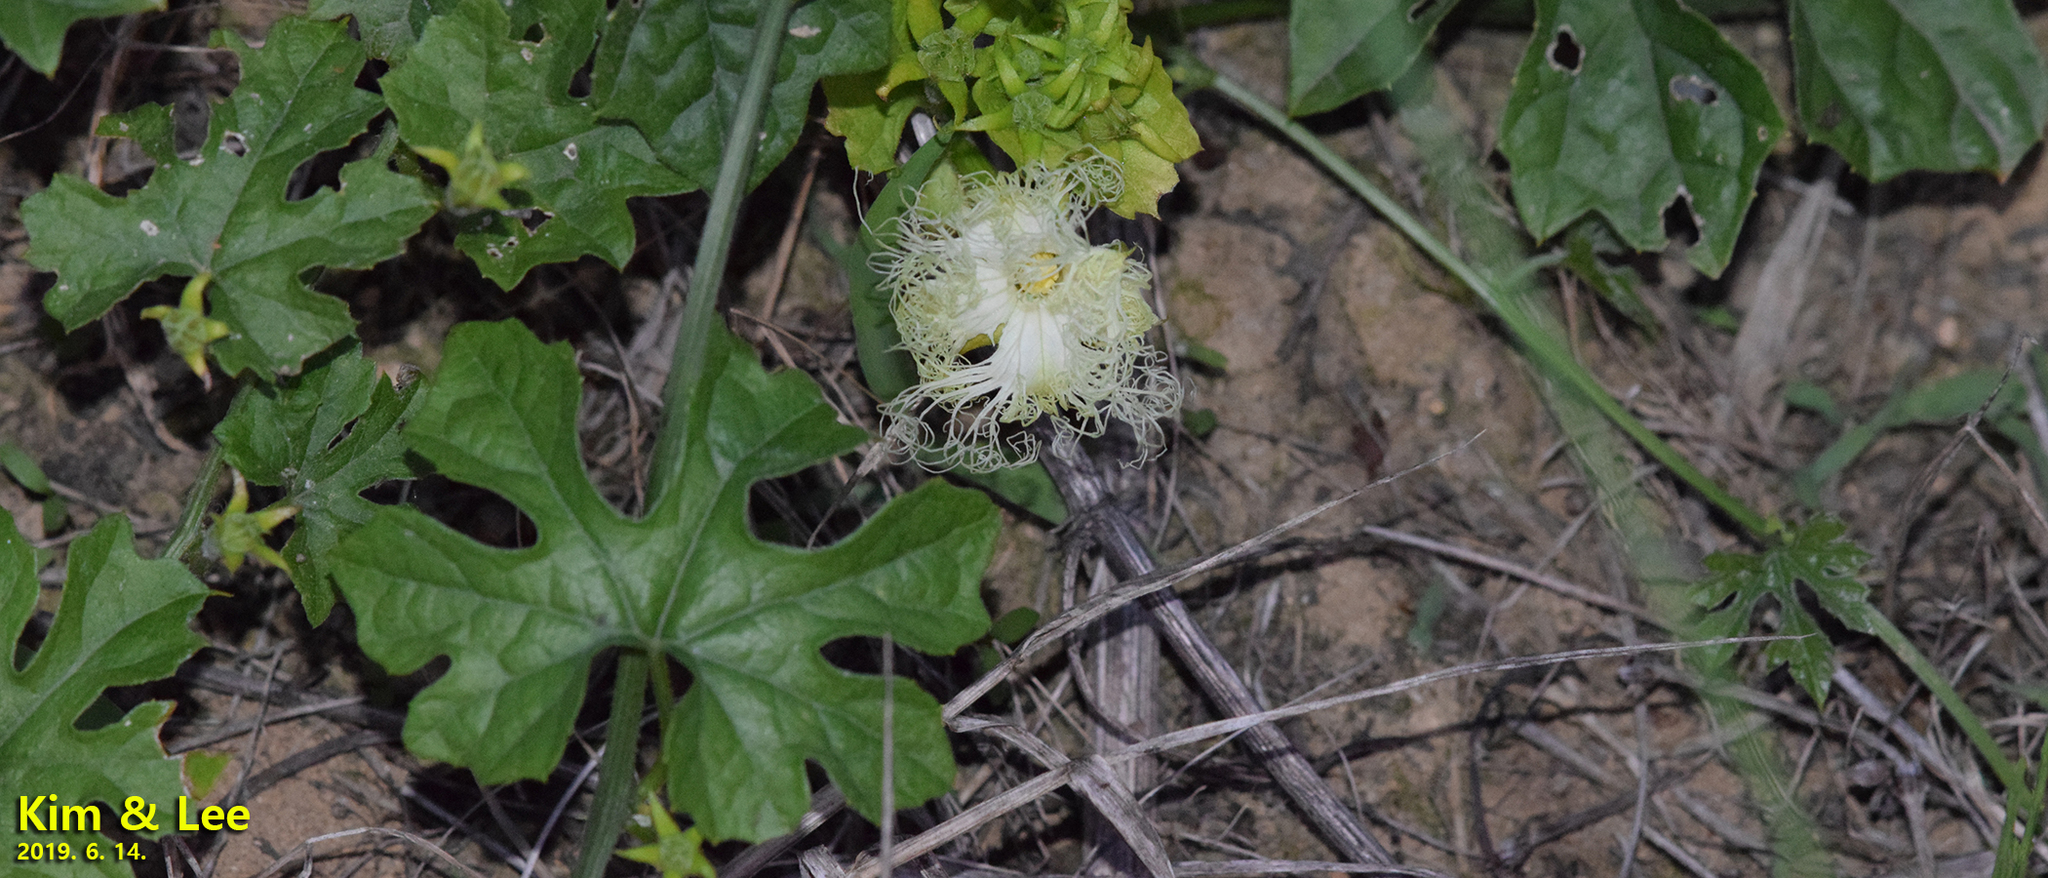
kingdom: Plantae
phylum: Tracheophyta
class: Magnoliopsida
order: Cucurbitales
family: Cucurbitaceae
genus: Trichosanthes
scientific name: Trichosanthes kirilowii
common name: Chinese-cucumber
